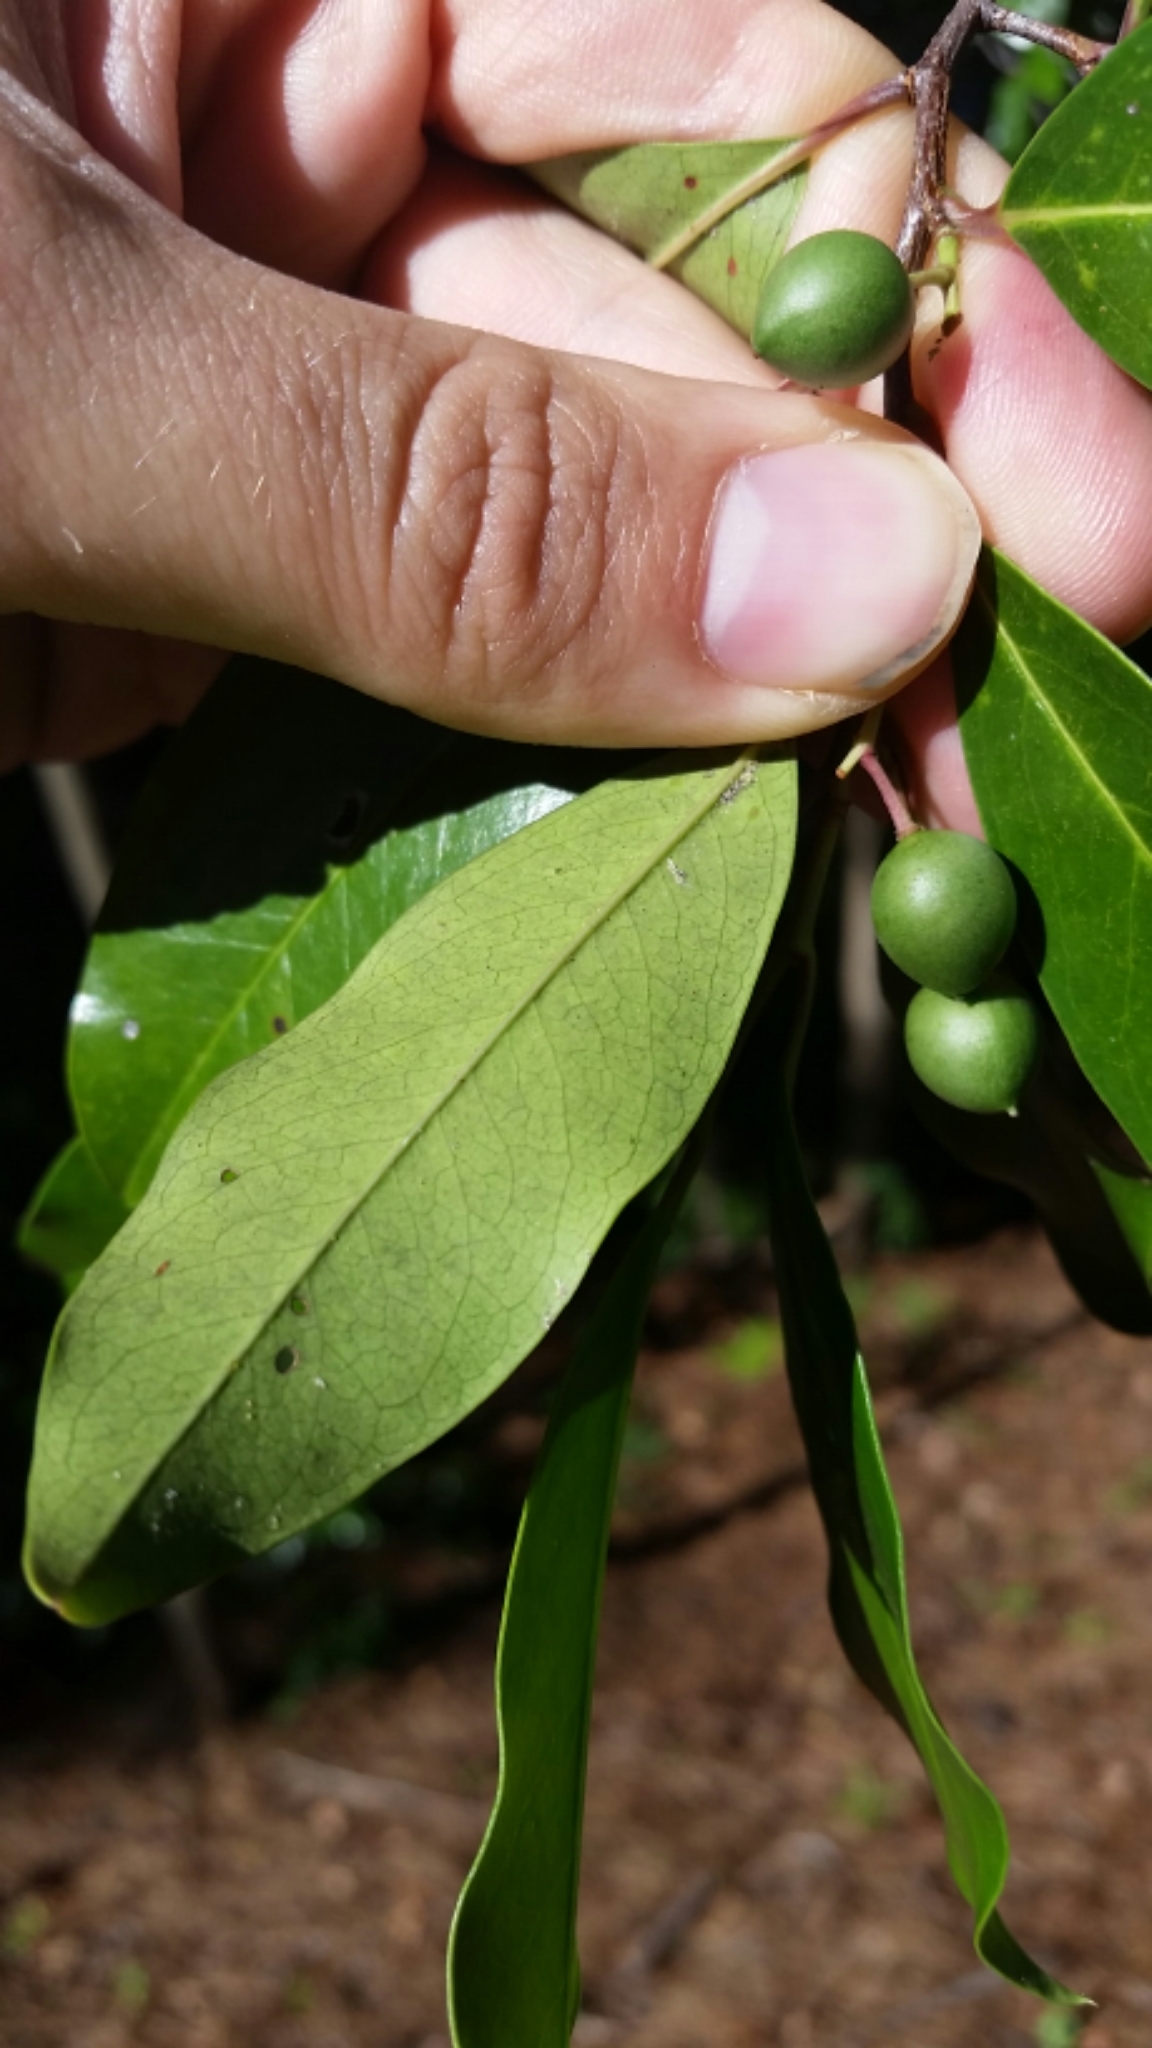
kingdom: Plantae
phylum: Tracheophyta
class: Magnoliopsida
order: Rosales
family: Rosaceae
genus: Prunus
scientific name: Prunus caroliniana
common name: Carolina laurel cherry
